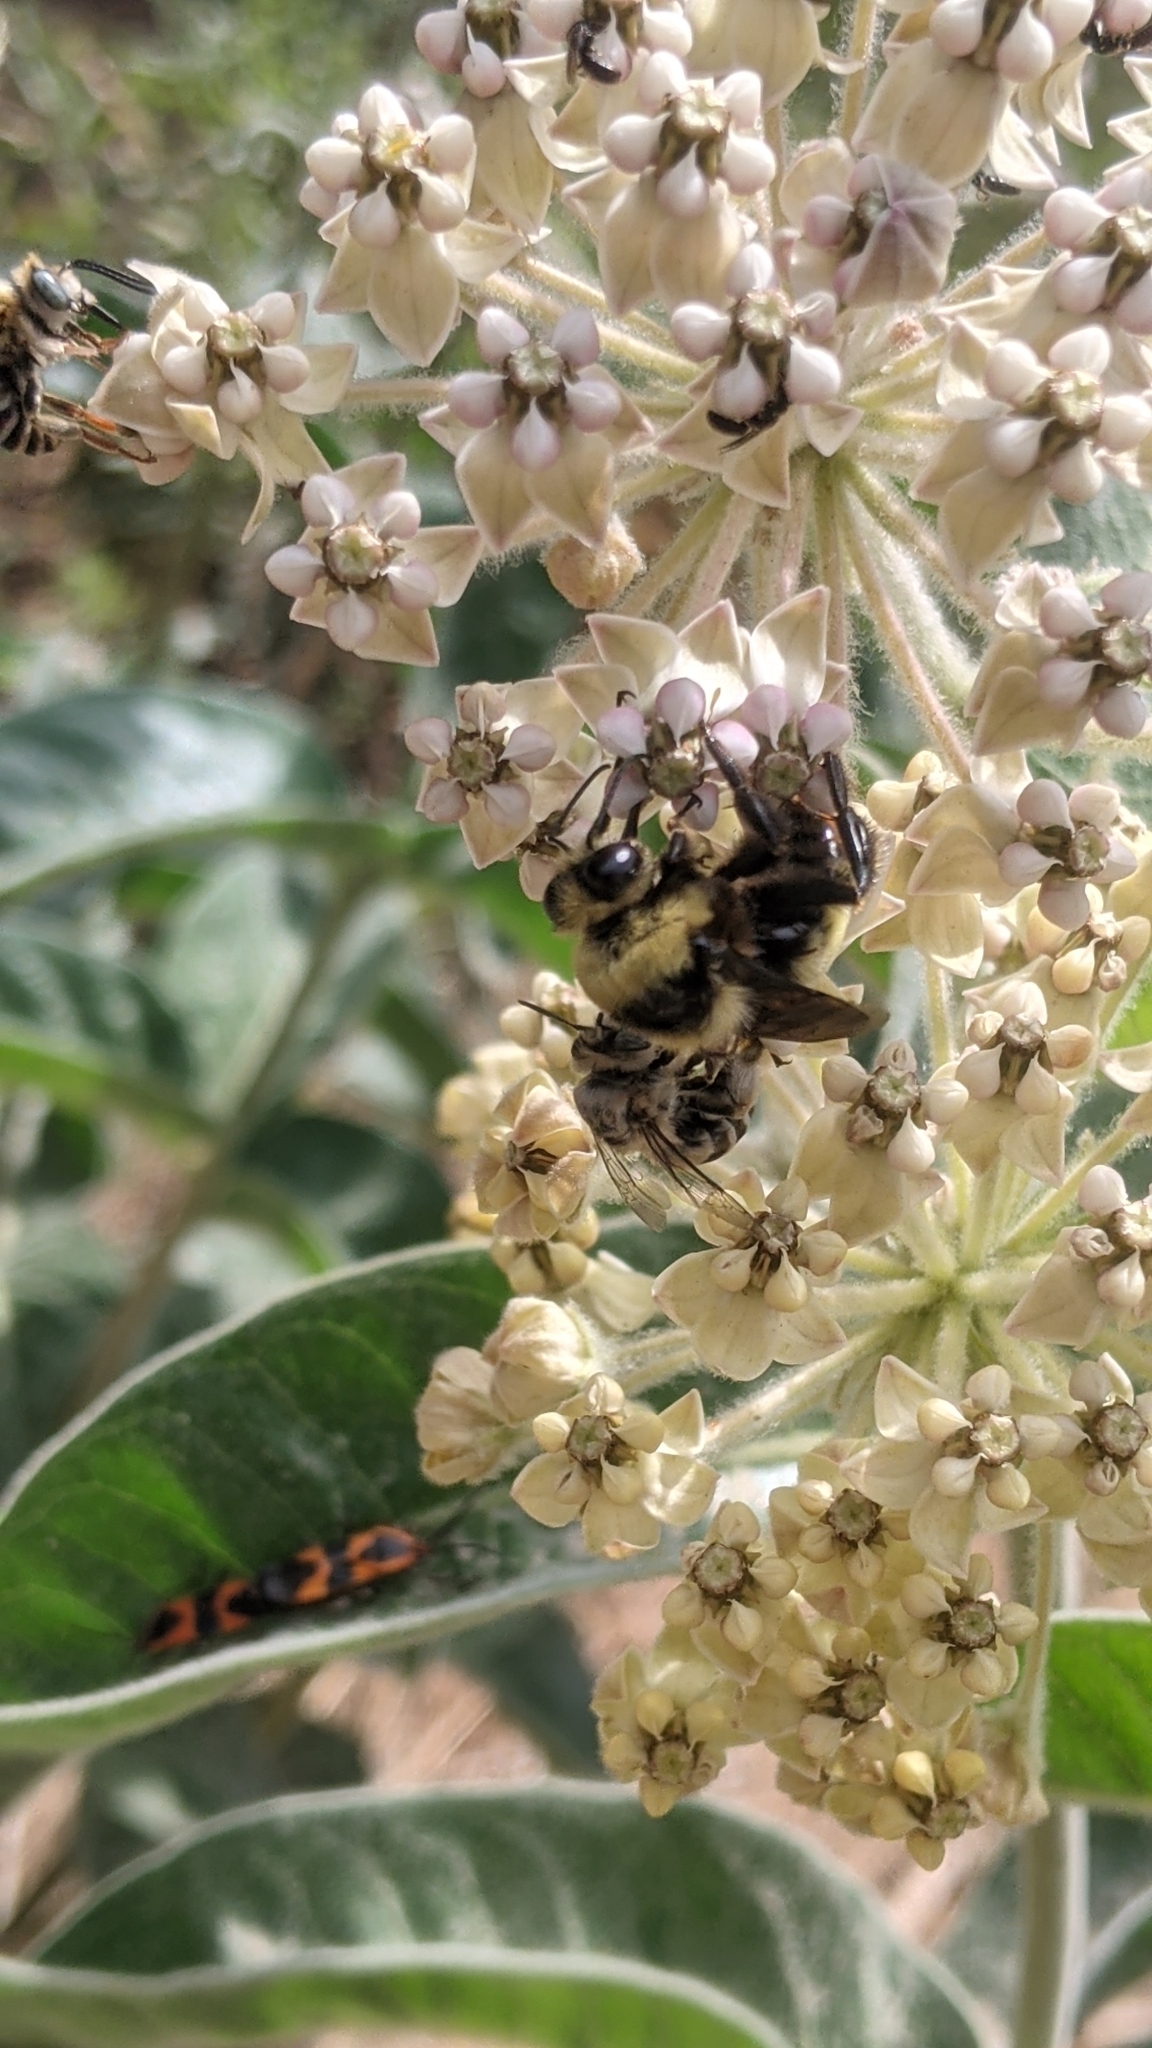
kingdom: Animalia
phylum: Arthropoda
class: Insecta
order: Hymenoptera
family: Apidae
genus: Bombus
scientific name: Bombus crotchii
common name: Crotch bumble bee
